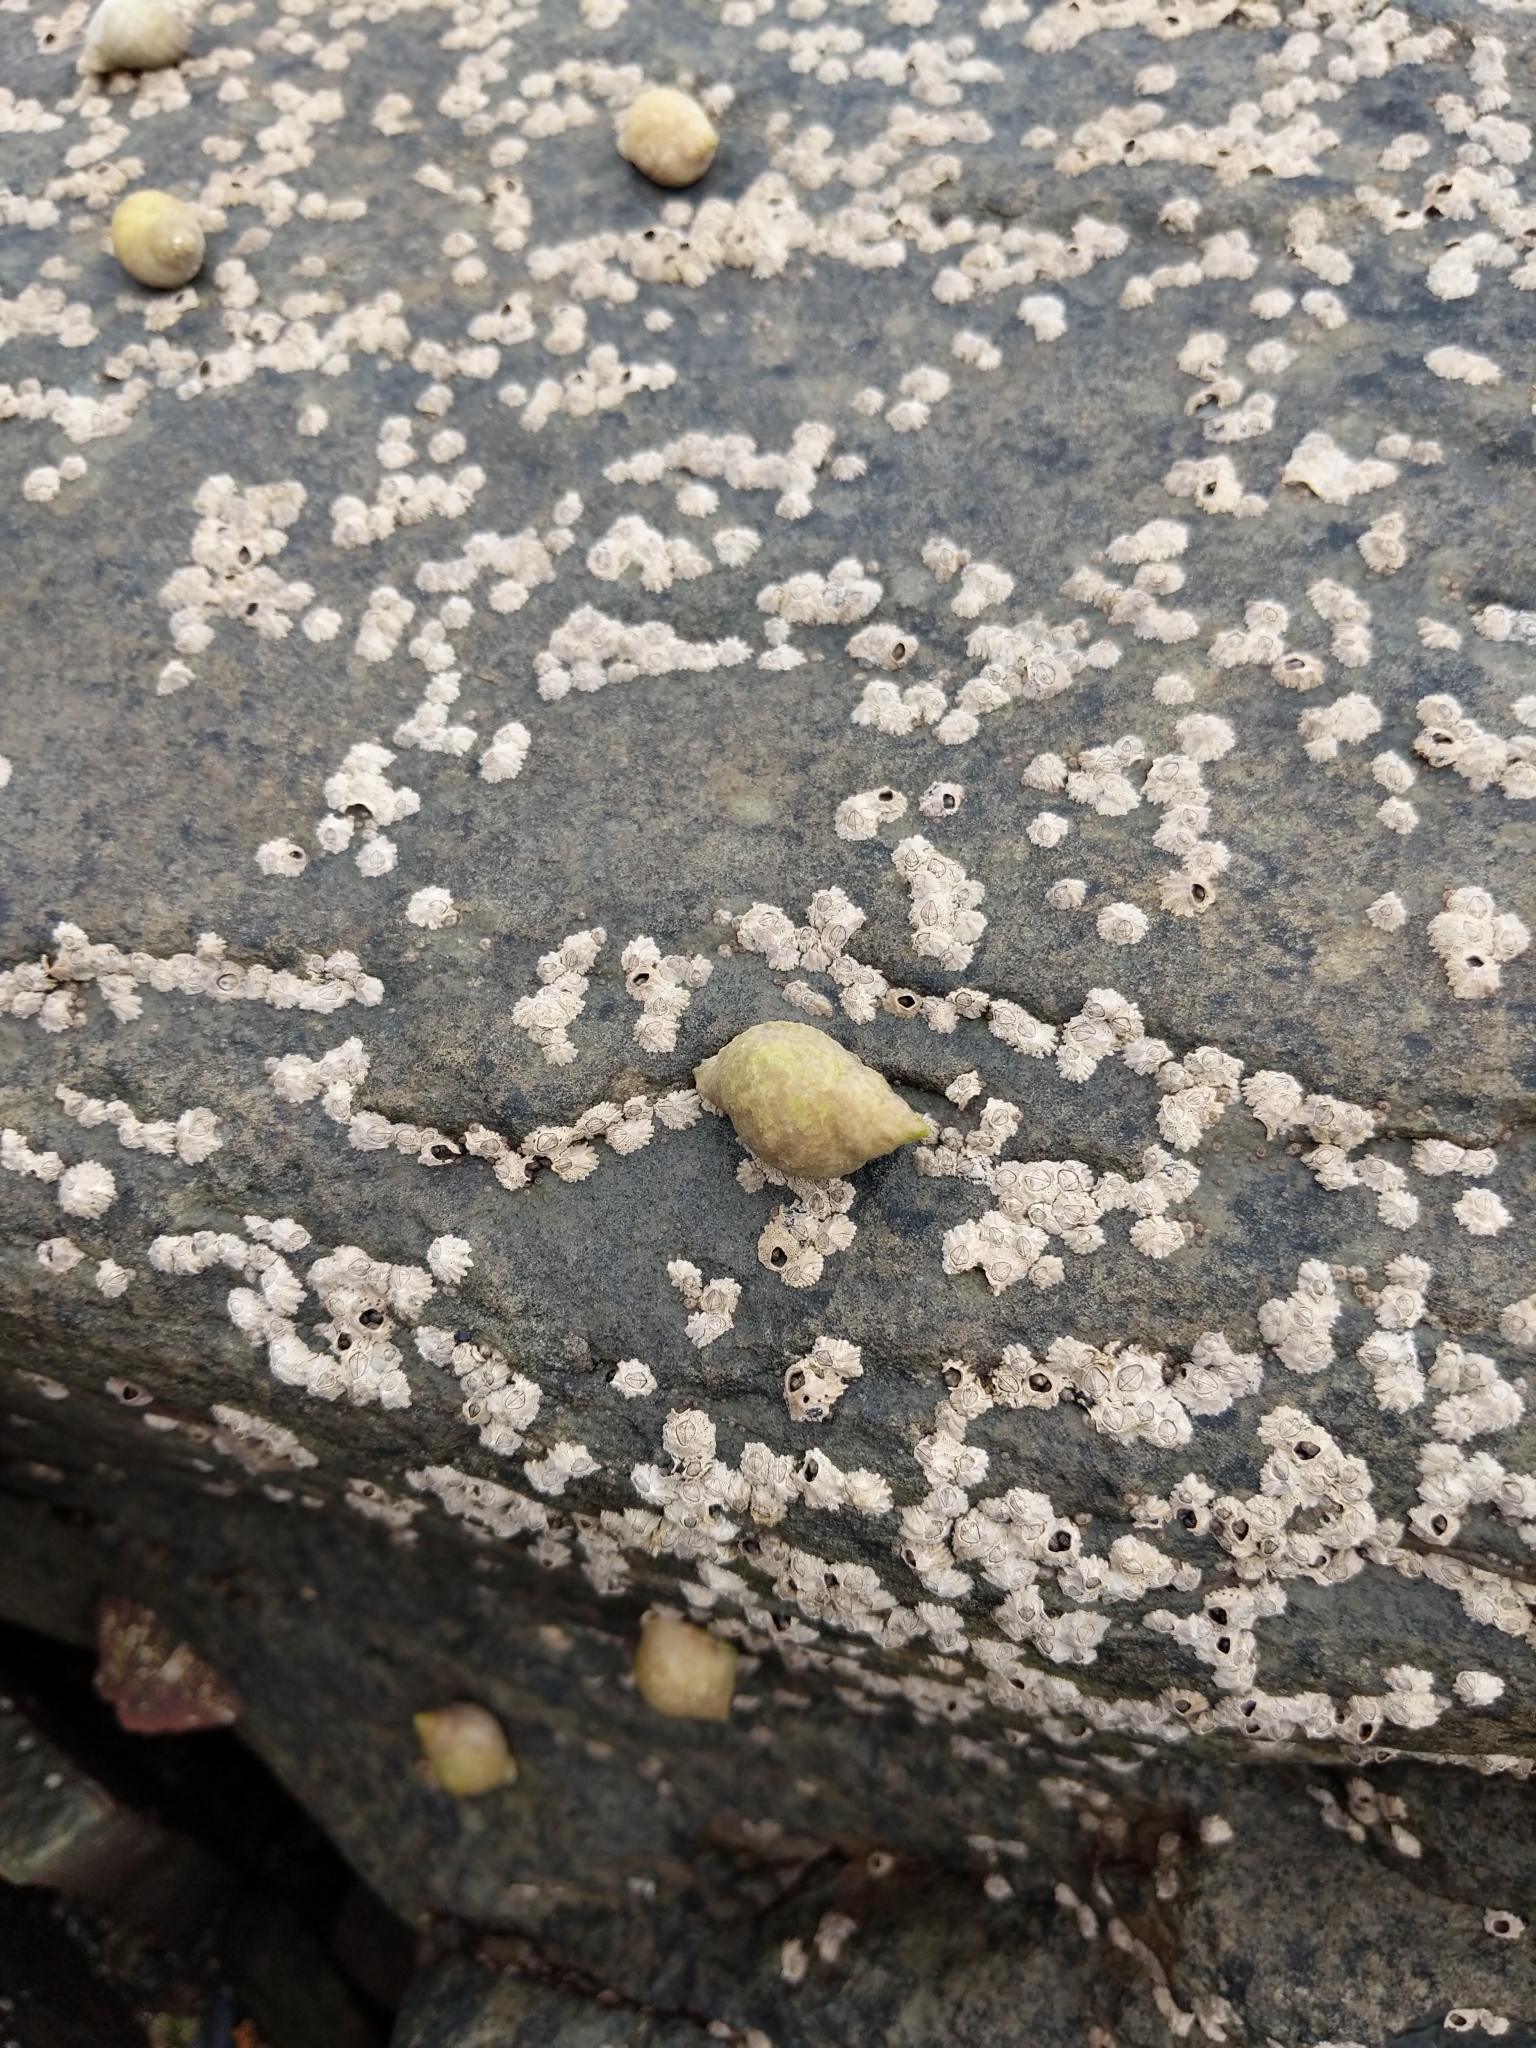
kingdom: Animalia
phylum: Mollusca
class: Gastropoda
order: Neogastropoda
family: Muricidae
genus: Nucella
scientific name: Nucella lapillus
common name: Dog whelk
